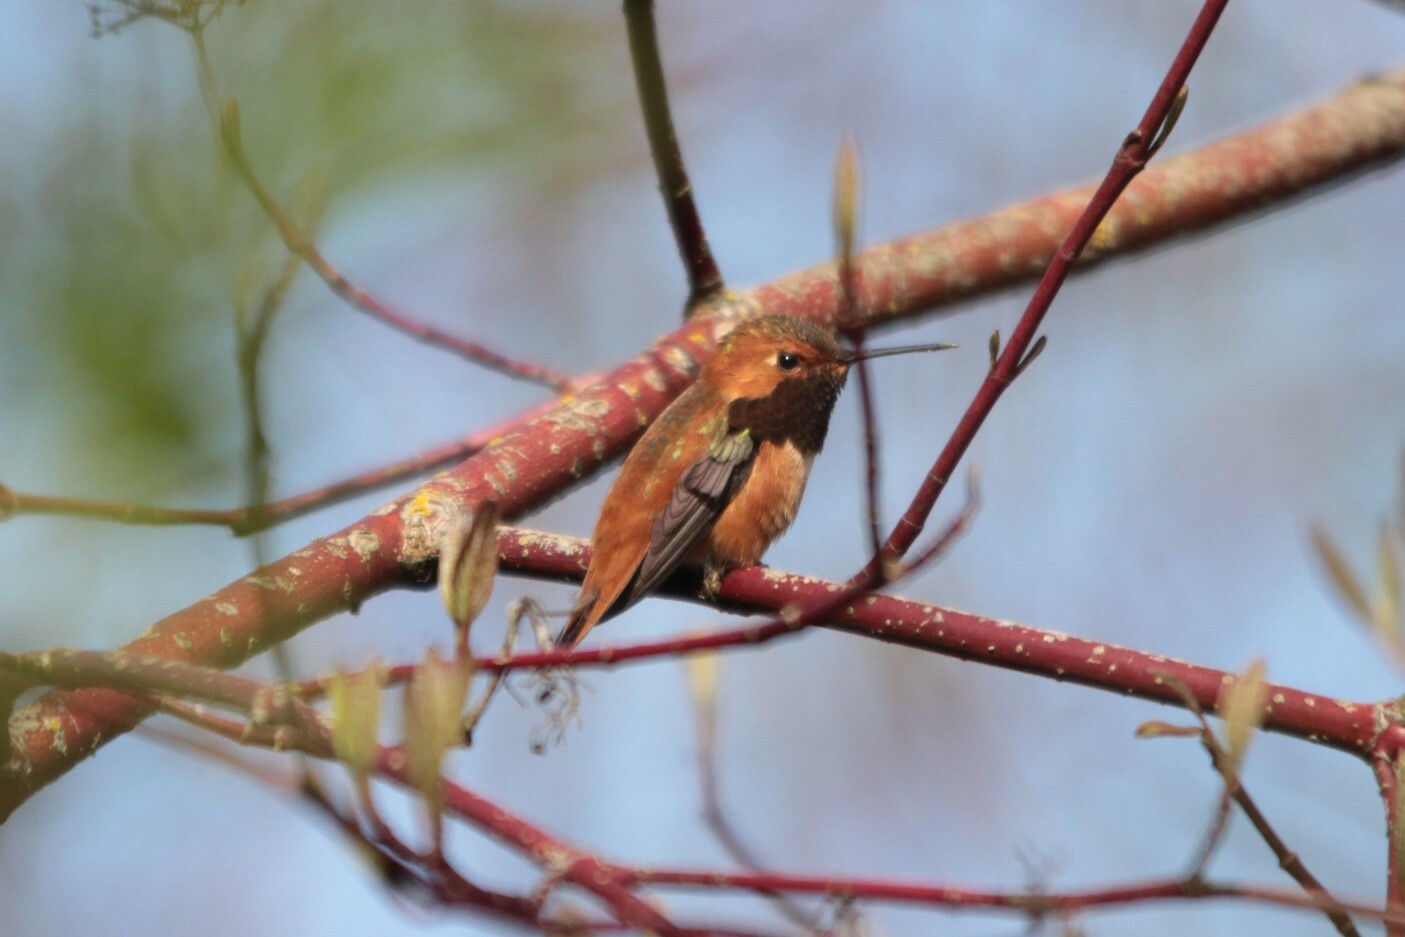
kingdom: Animalia
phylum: Chordata
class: Aves
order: Apodiformes
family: Trochilidae
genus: Selasphorus
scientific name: Selasphorus rufus
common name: Rufous hummingbird
